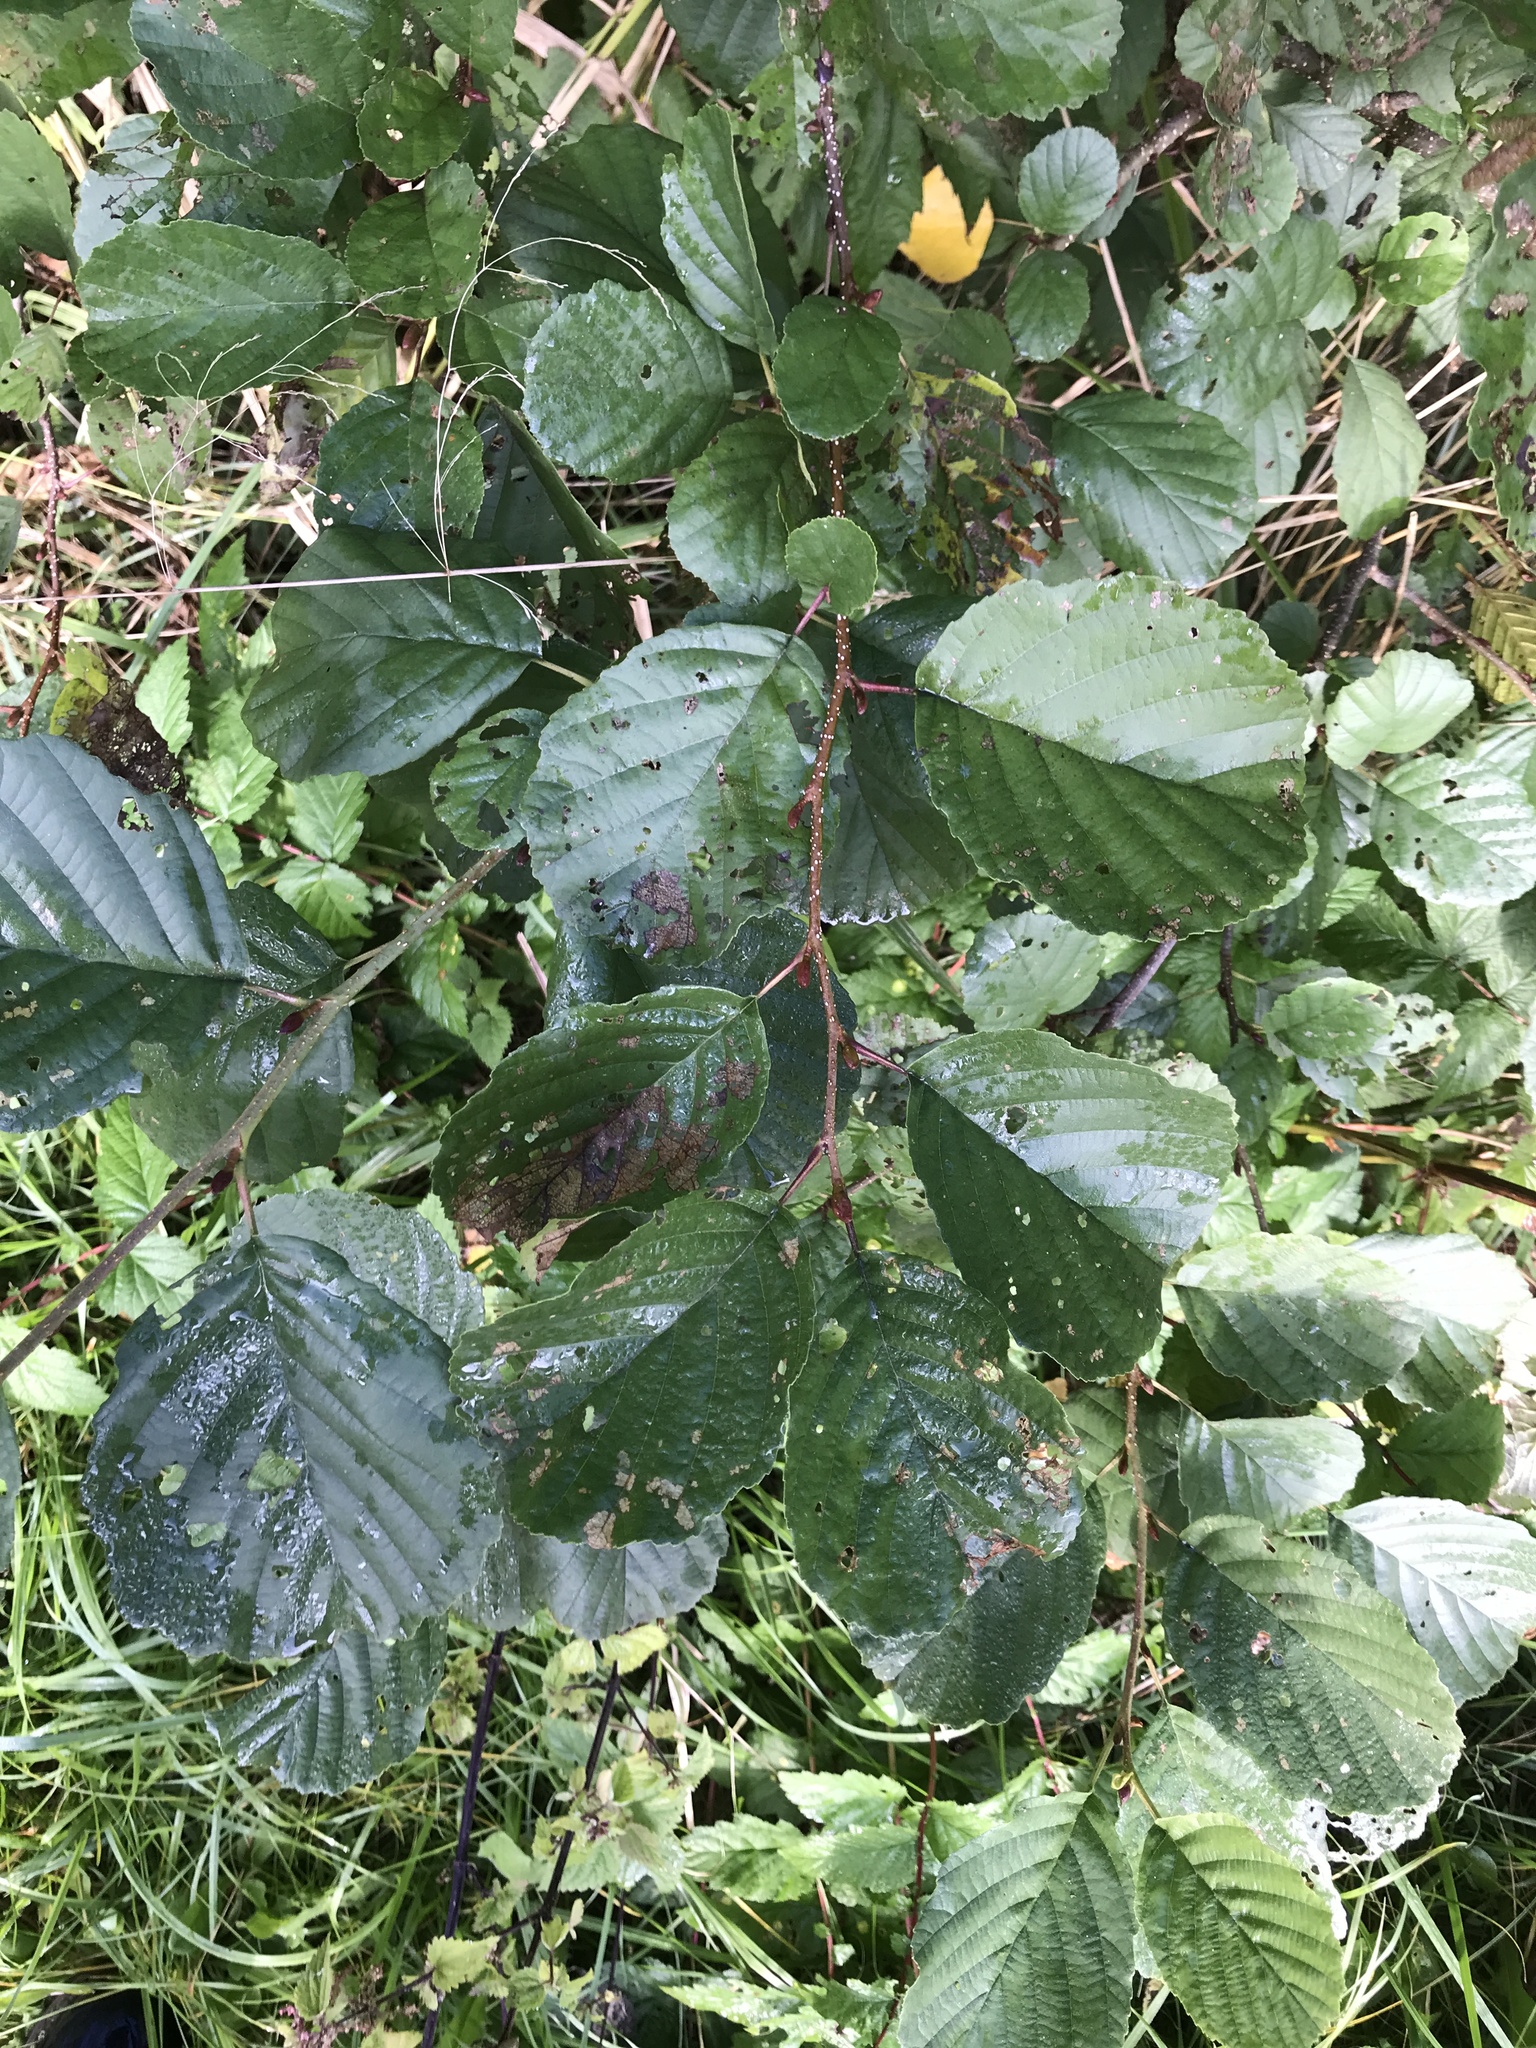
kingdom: Plantae
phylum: Tracheophyta
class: Magnoliopsida
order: Fagales
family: Betulaceae
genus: Alnus
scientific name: Alnus glutinosa
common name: Black alder
